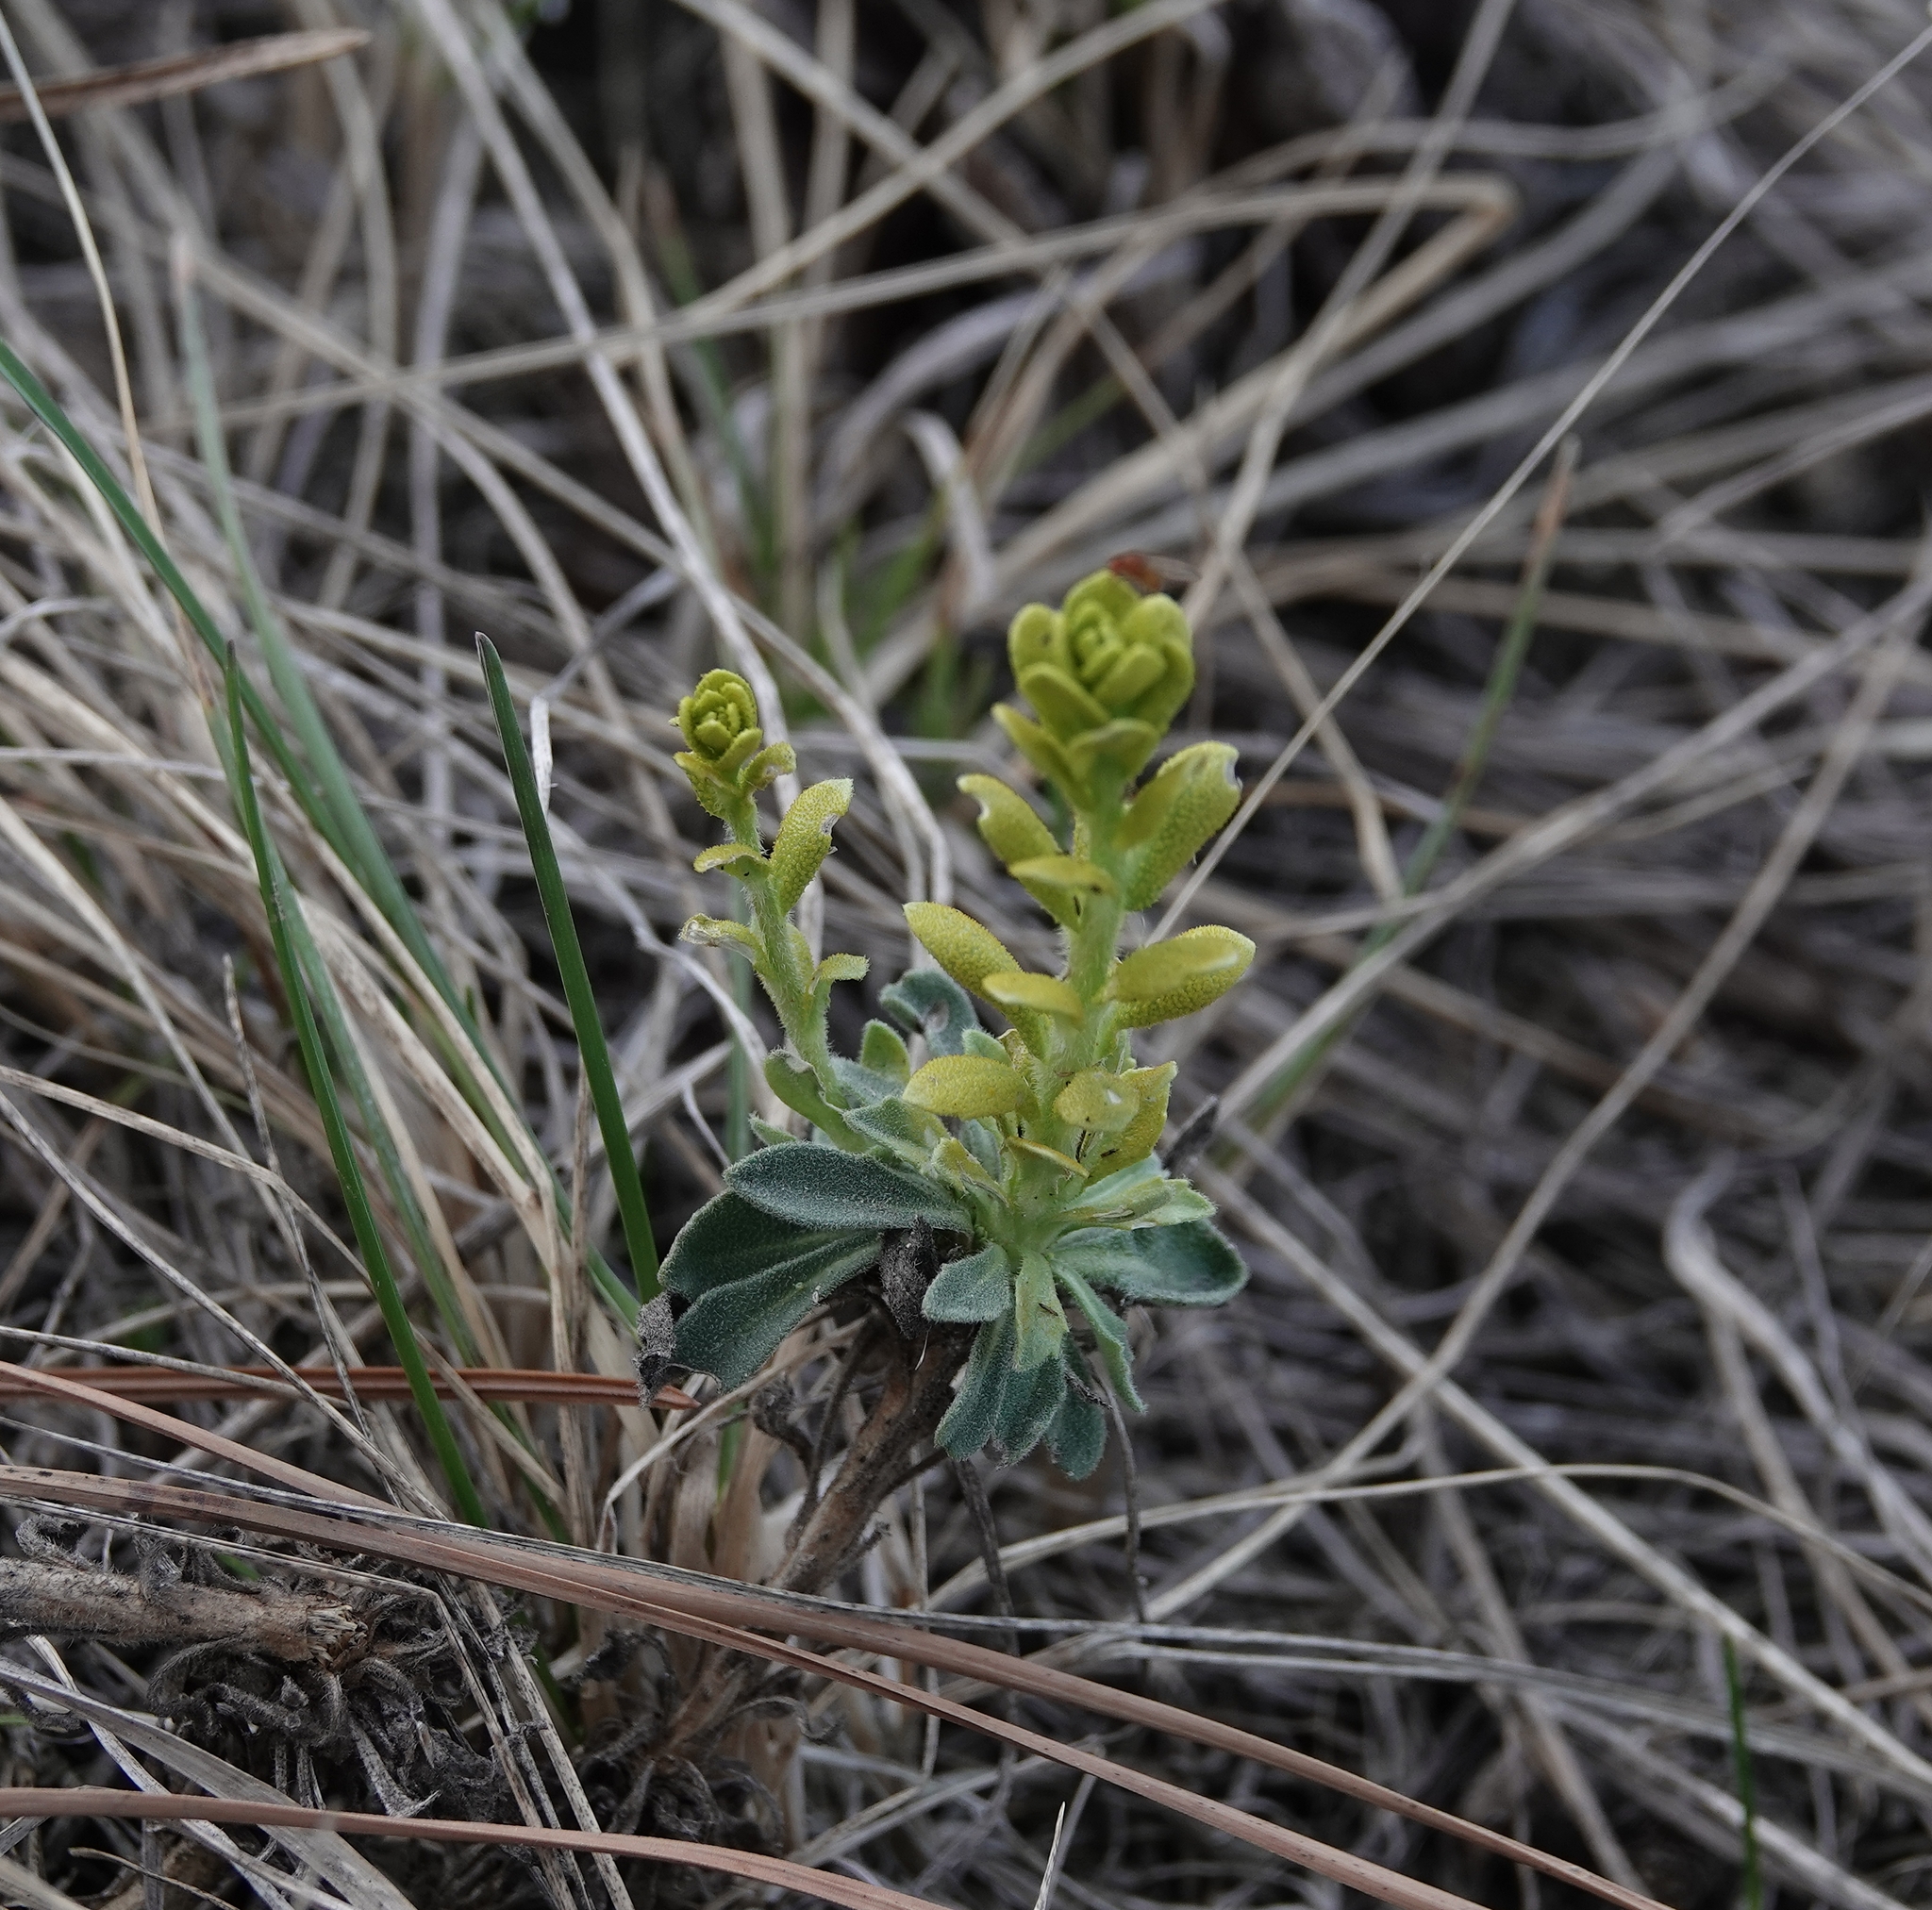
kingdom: Fungi
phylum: Basidiomycota
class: Pucciniomycetes
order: Pucciniales
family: Pucciniaceae
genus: Puccinia
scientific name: Puccinia monoica
